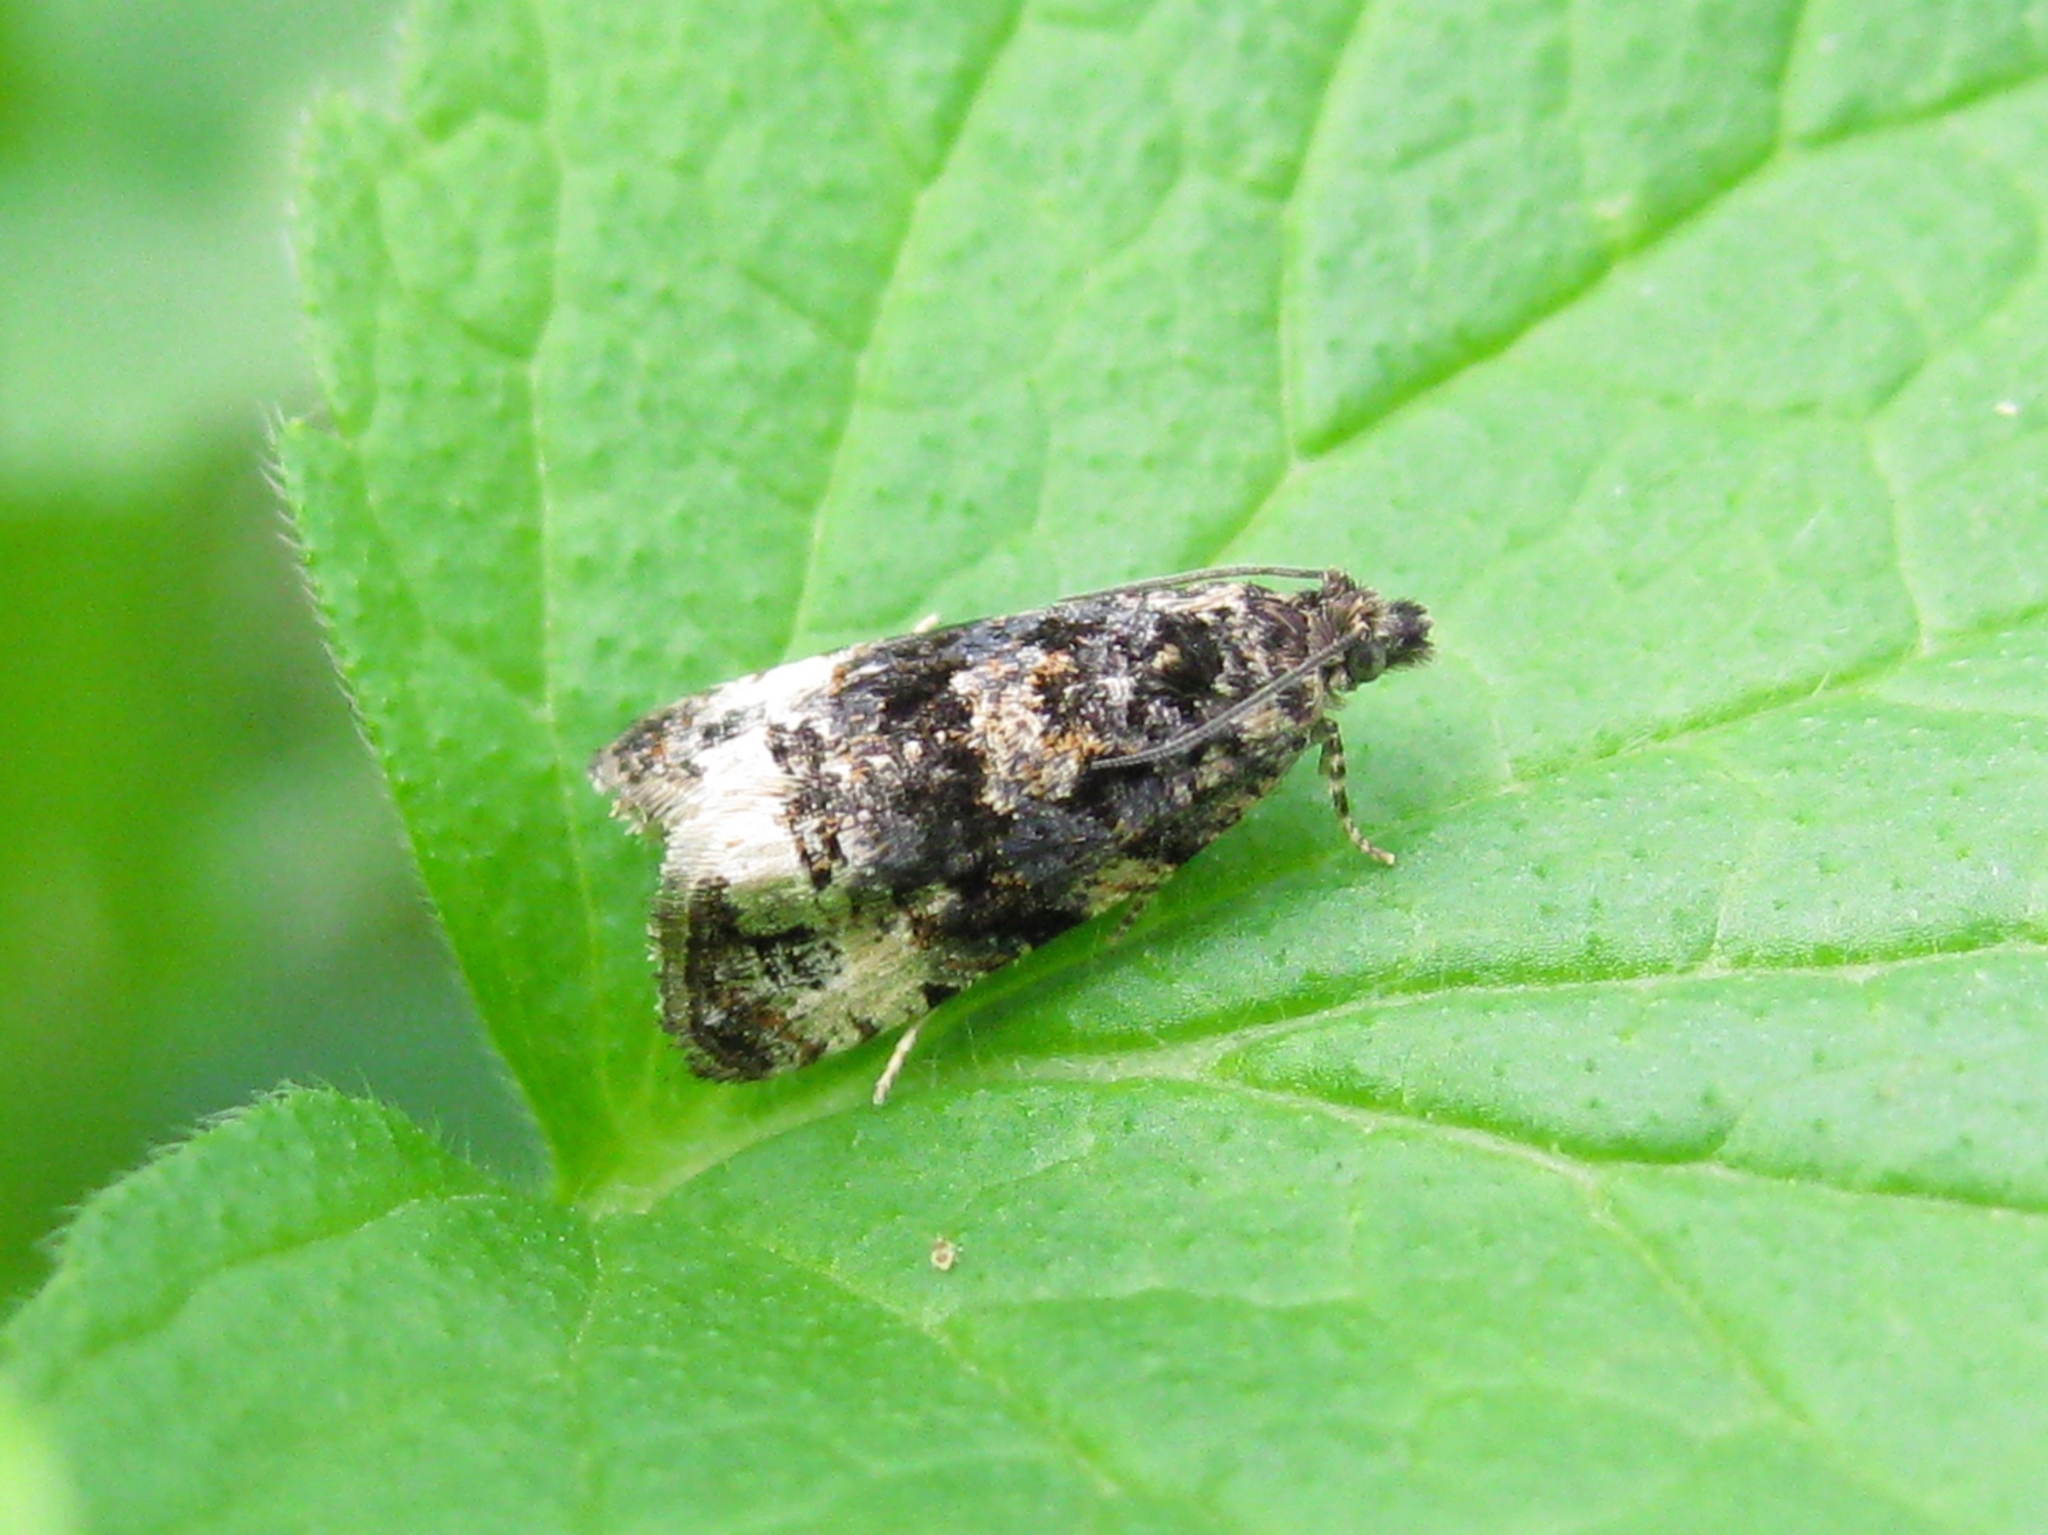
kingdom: Animalia
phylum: Arthropoda
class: Insecta
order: Lepidoptera
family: Tortricidae
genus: Endothenia
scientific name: Endothenia
